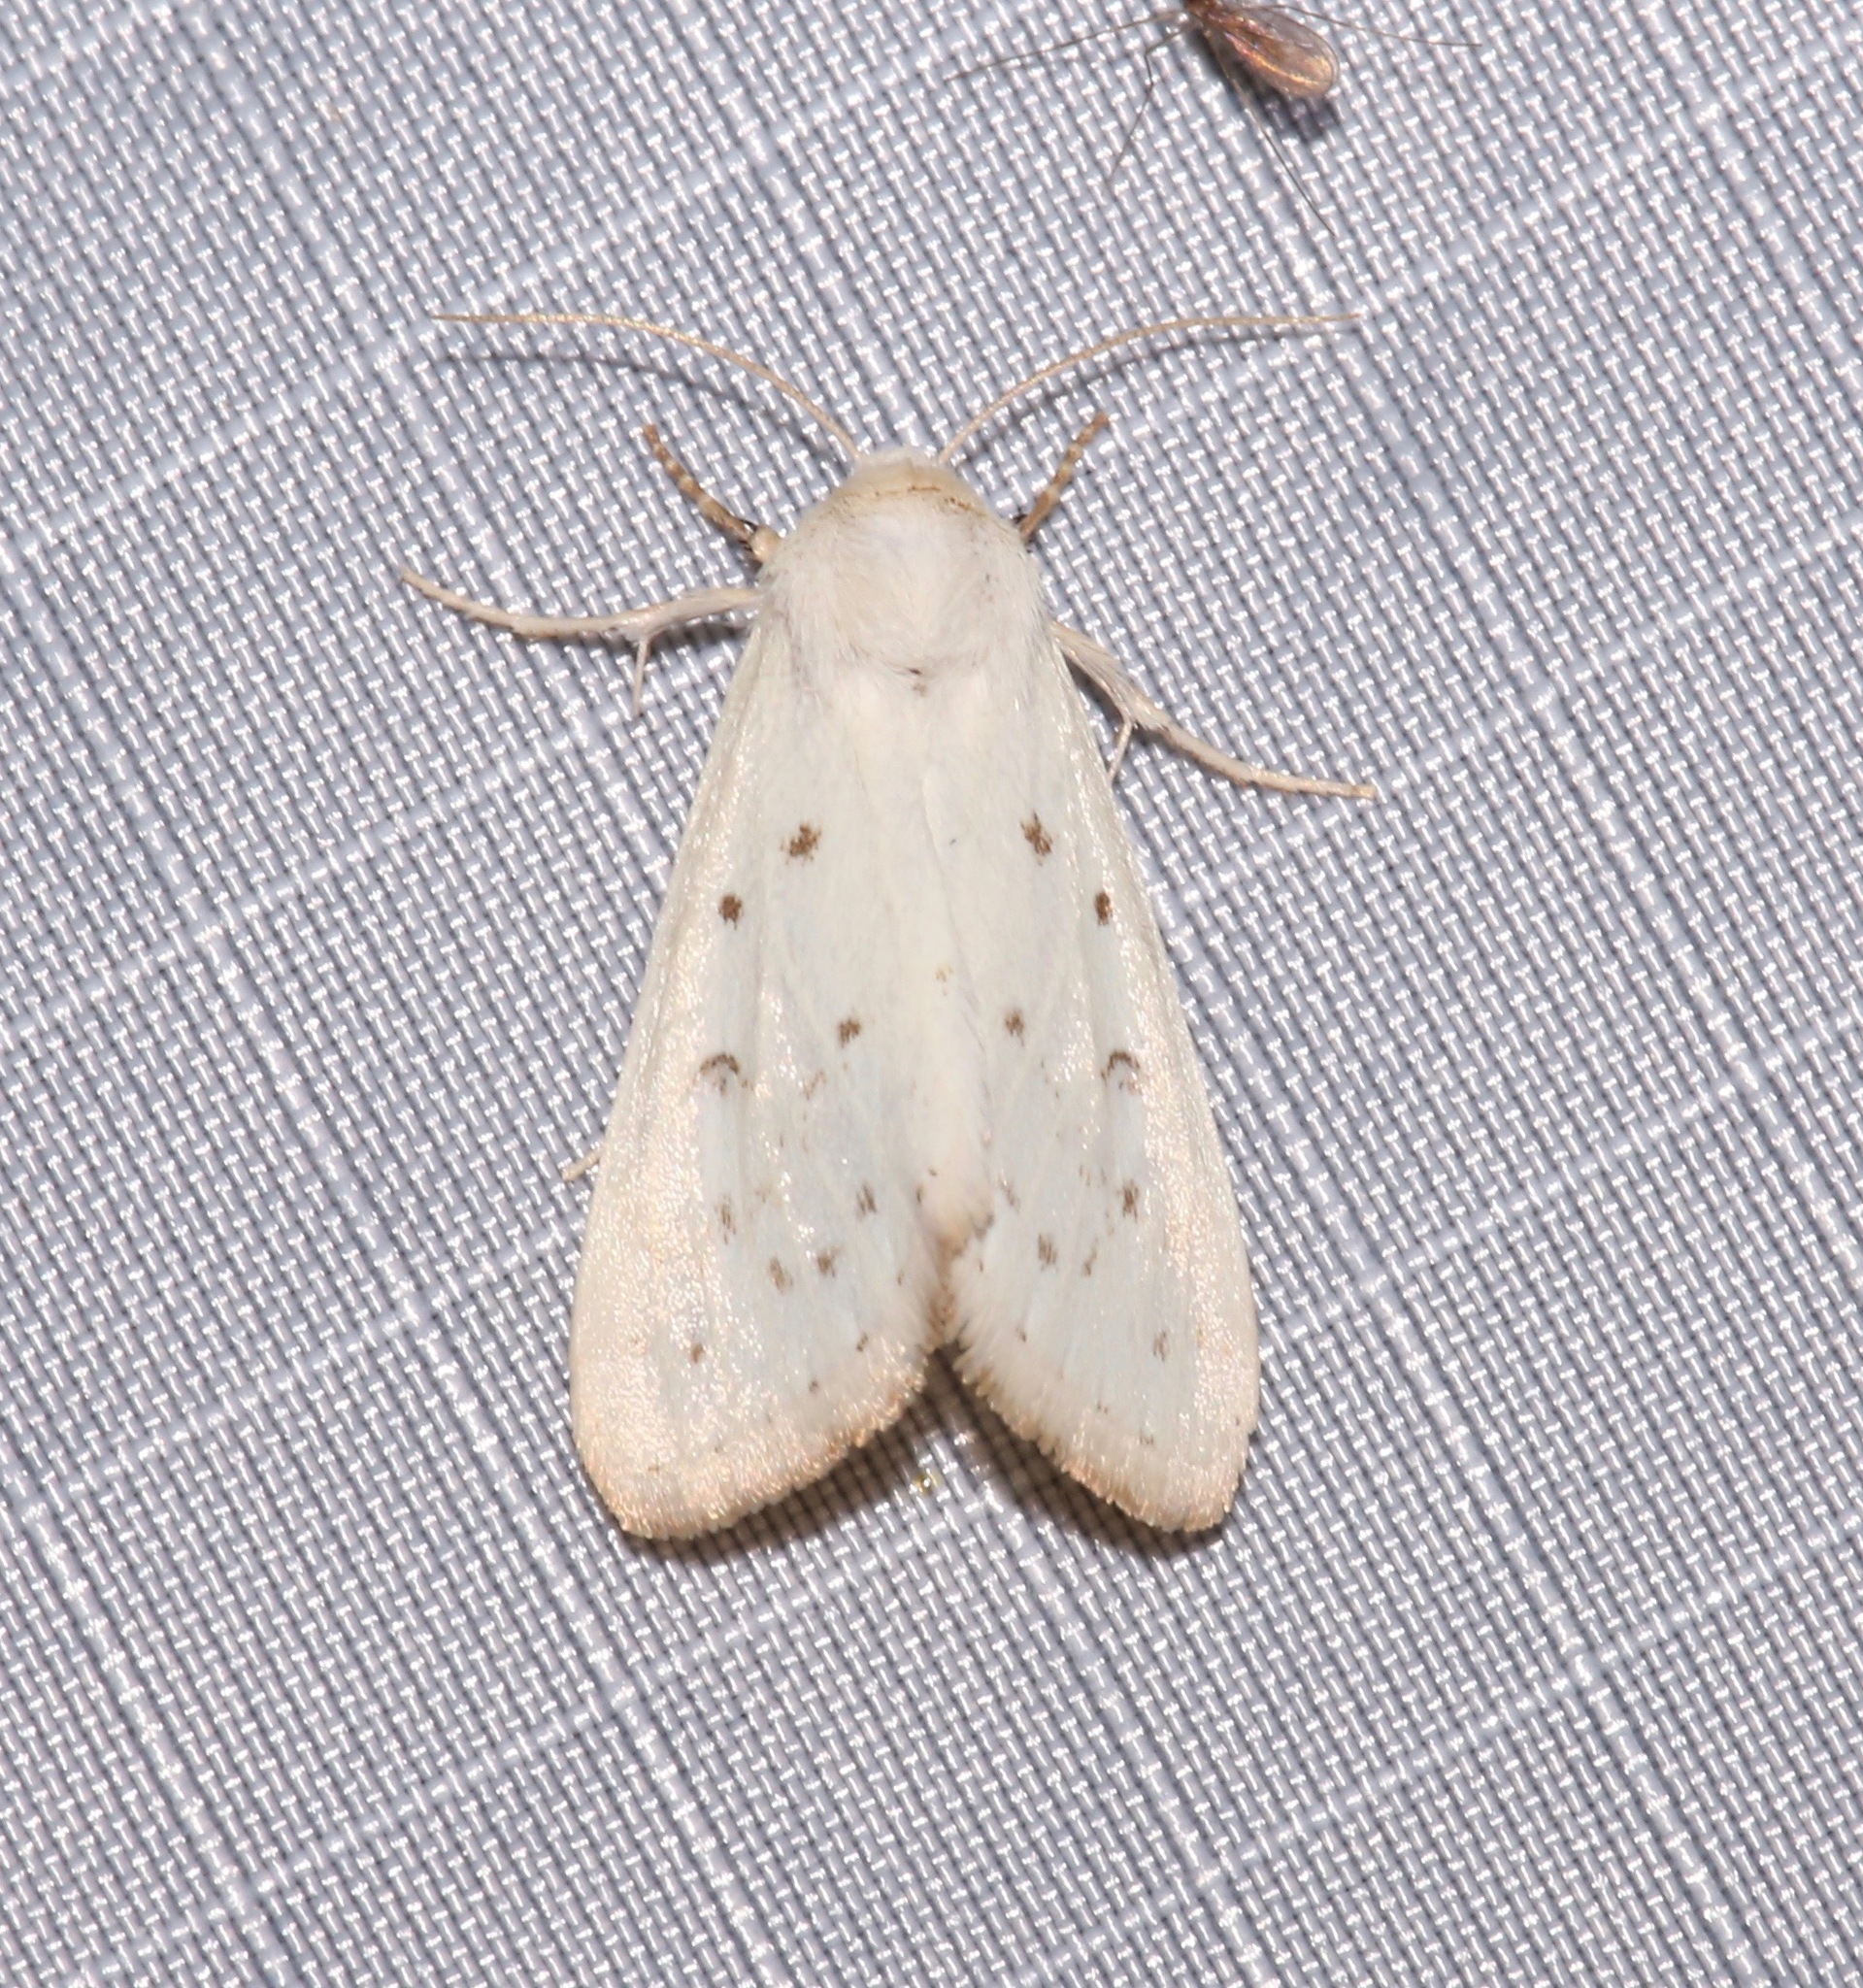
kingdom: Animalia
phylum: Arthropoda
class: Insecta
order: Lepidoptera
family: Noctuidae
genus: Schinia
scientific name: Schinia luxa
